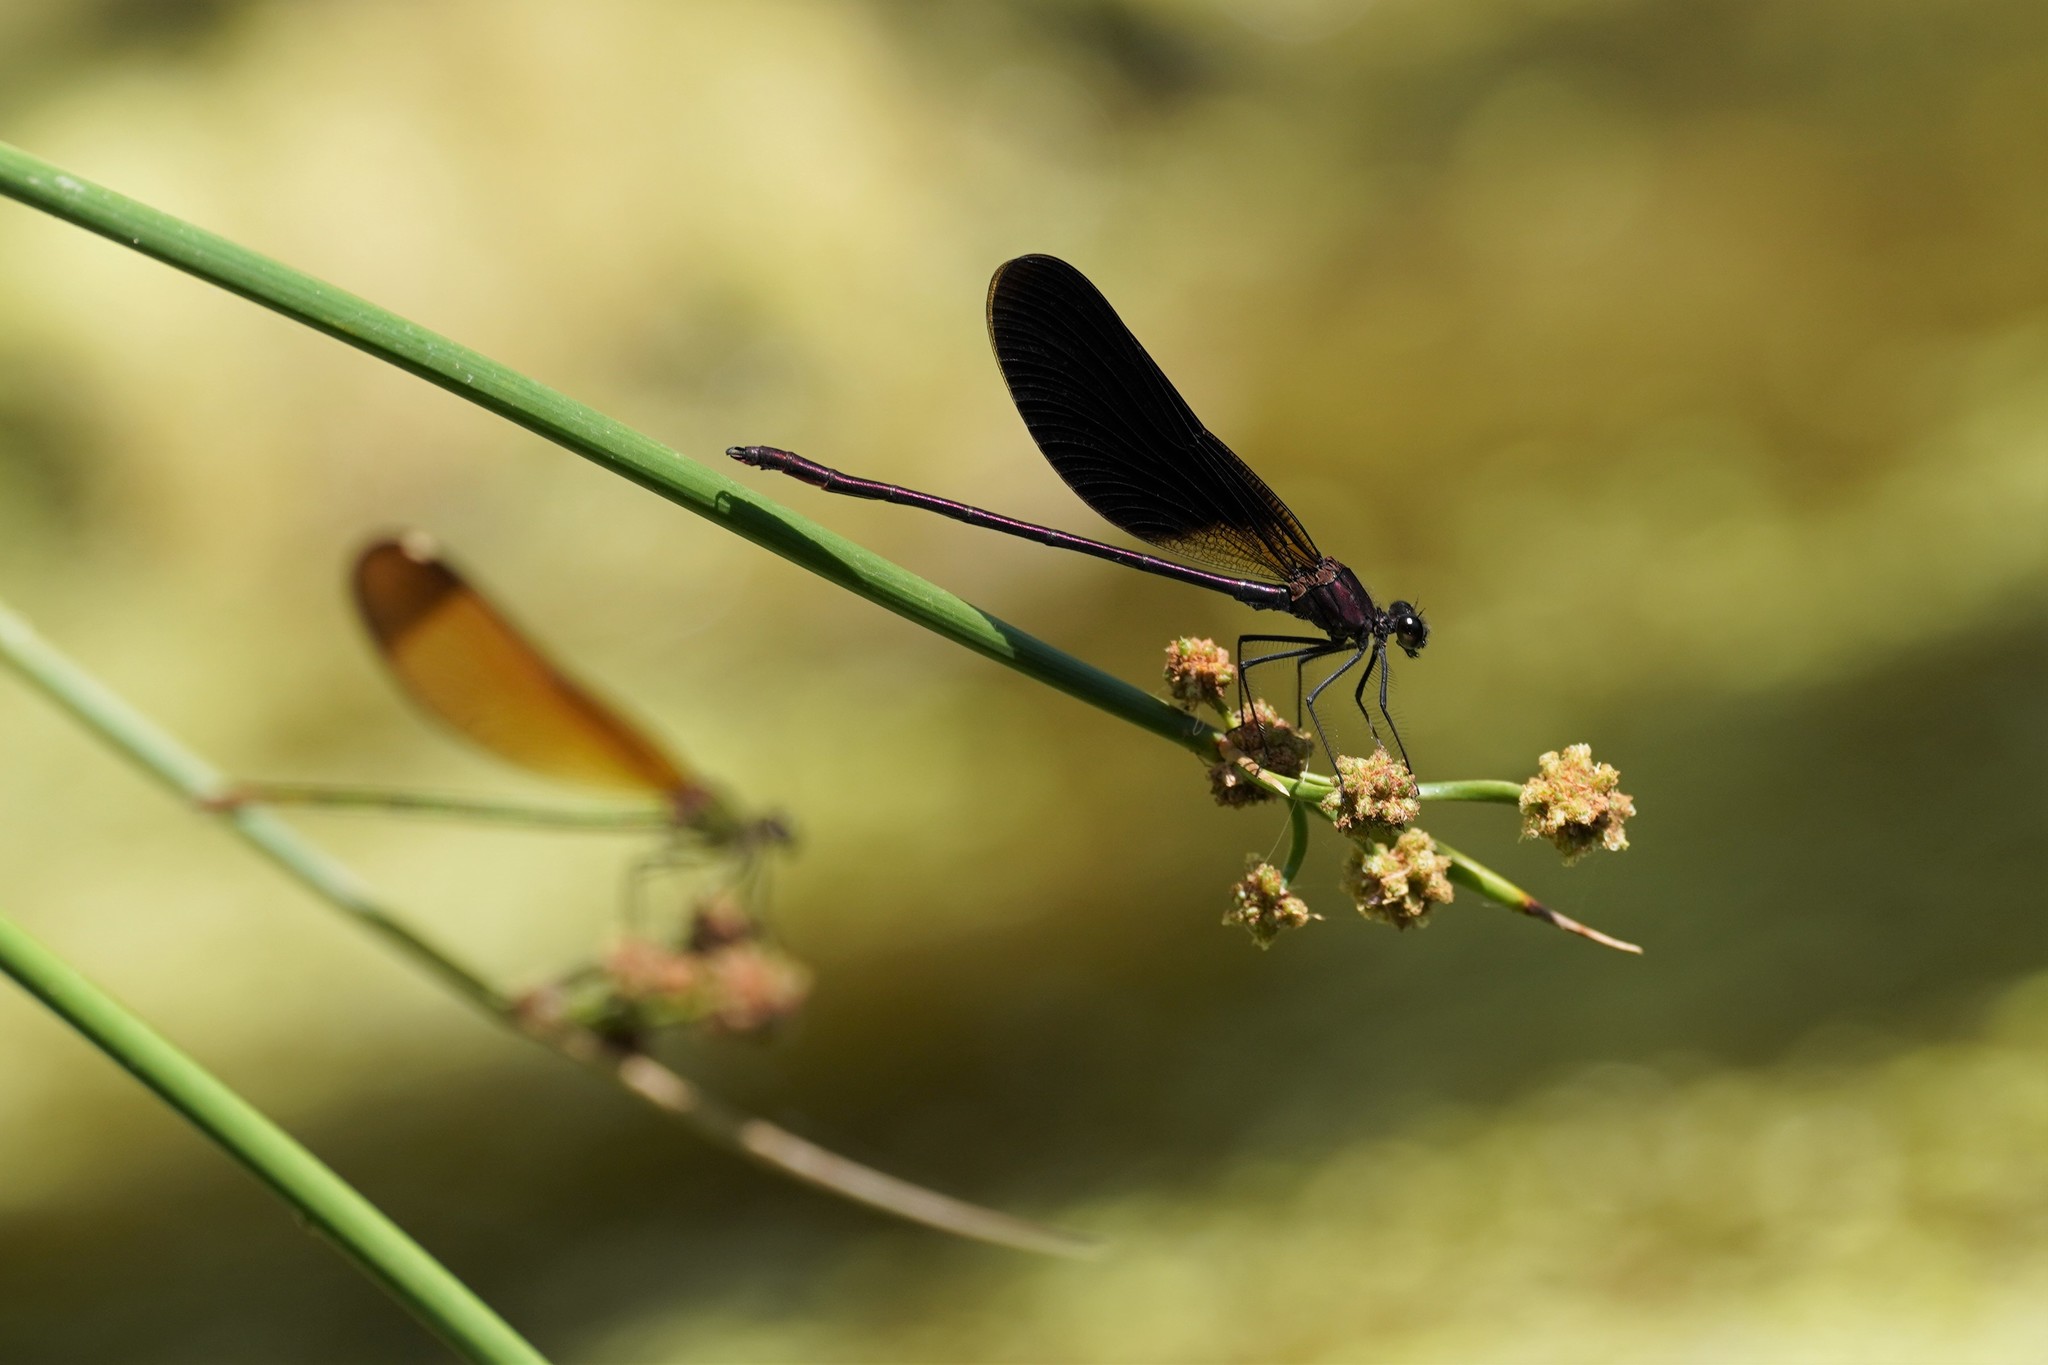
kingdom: Animalia
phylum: Arthropoda
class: Insecta
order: Odonata
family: Calopterygidae
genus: Calopteryx
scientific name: Calopteryx haemorrhoidalis
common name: Copper demoiselle
